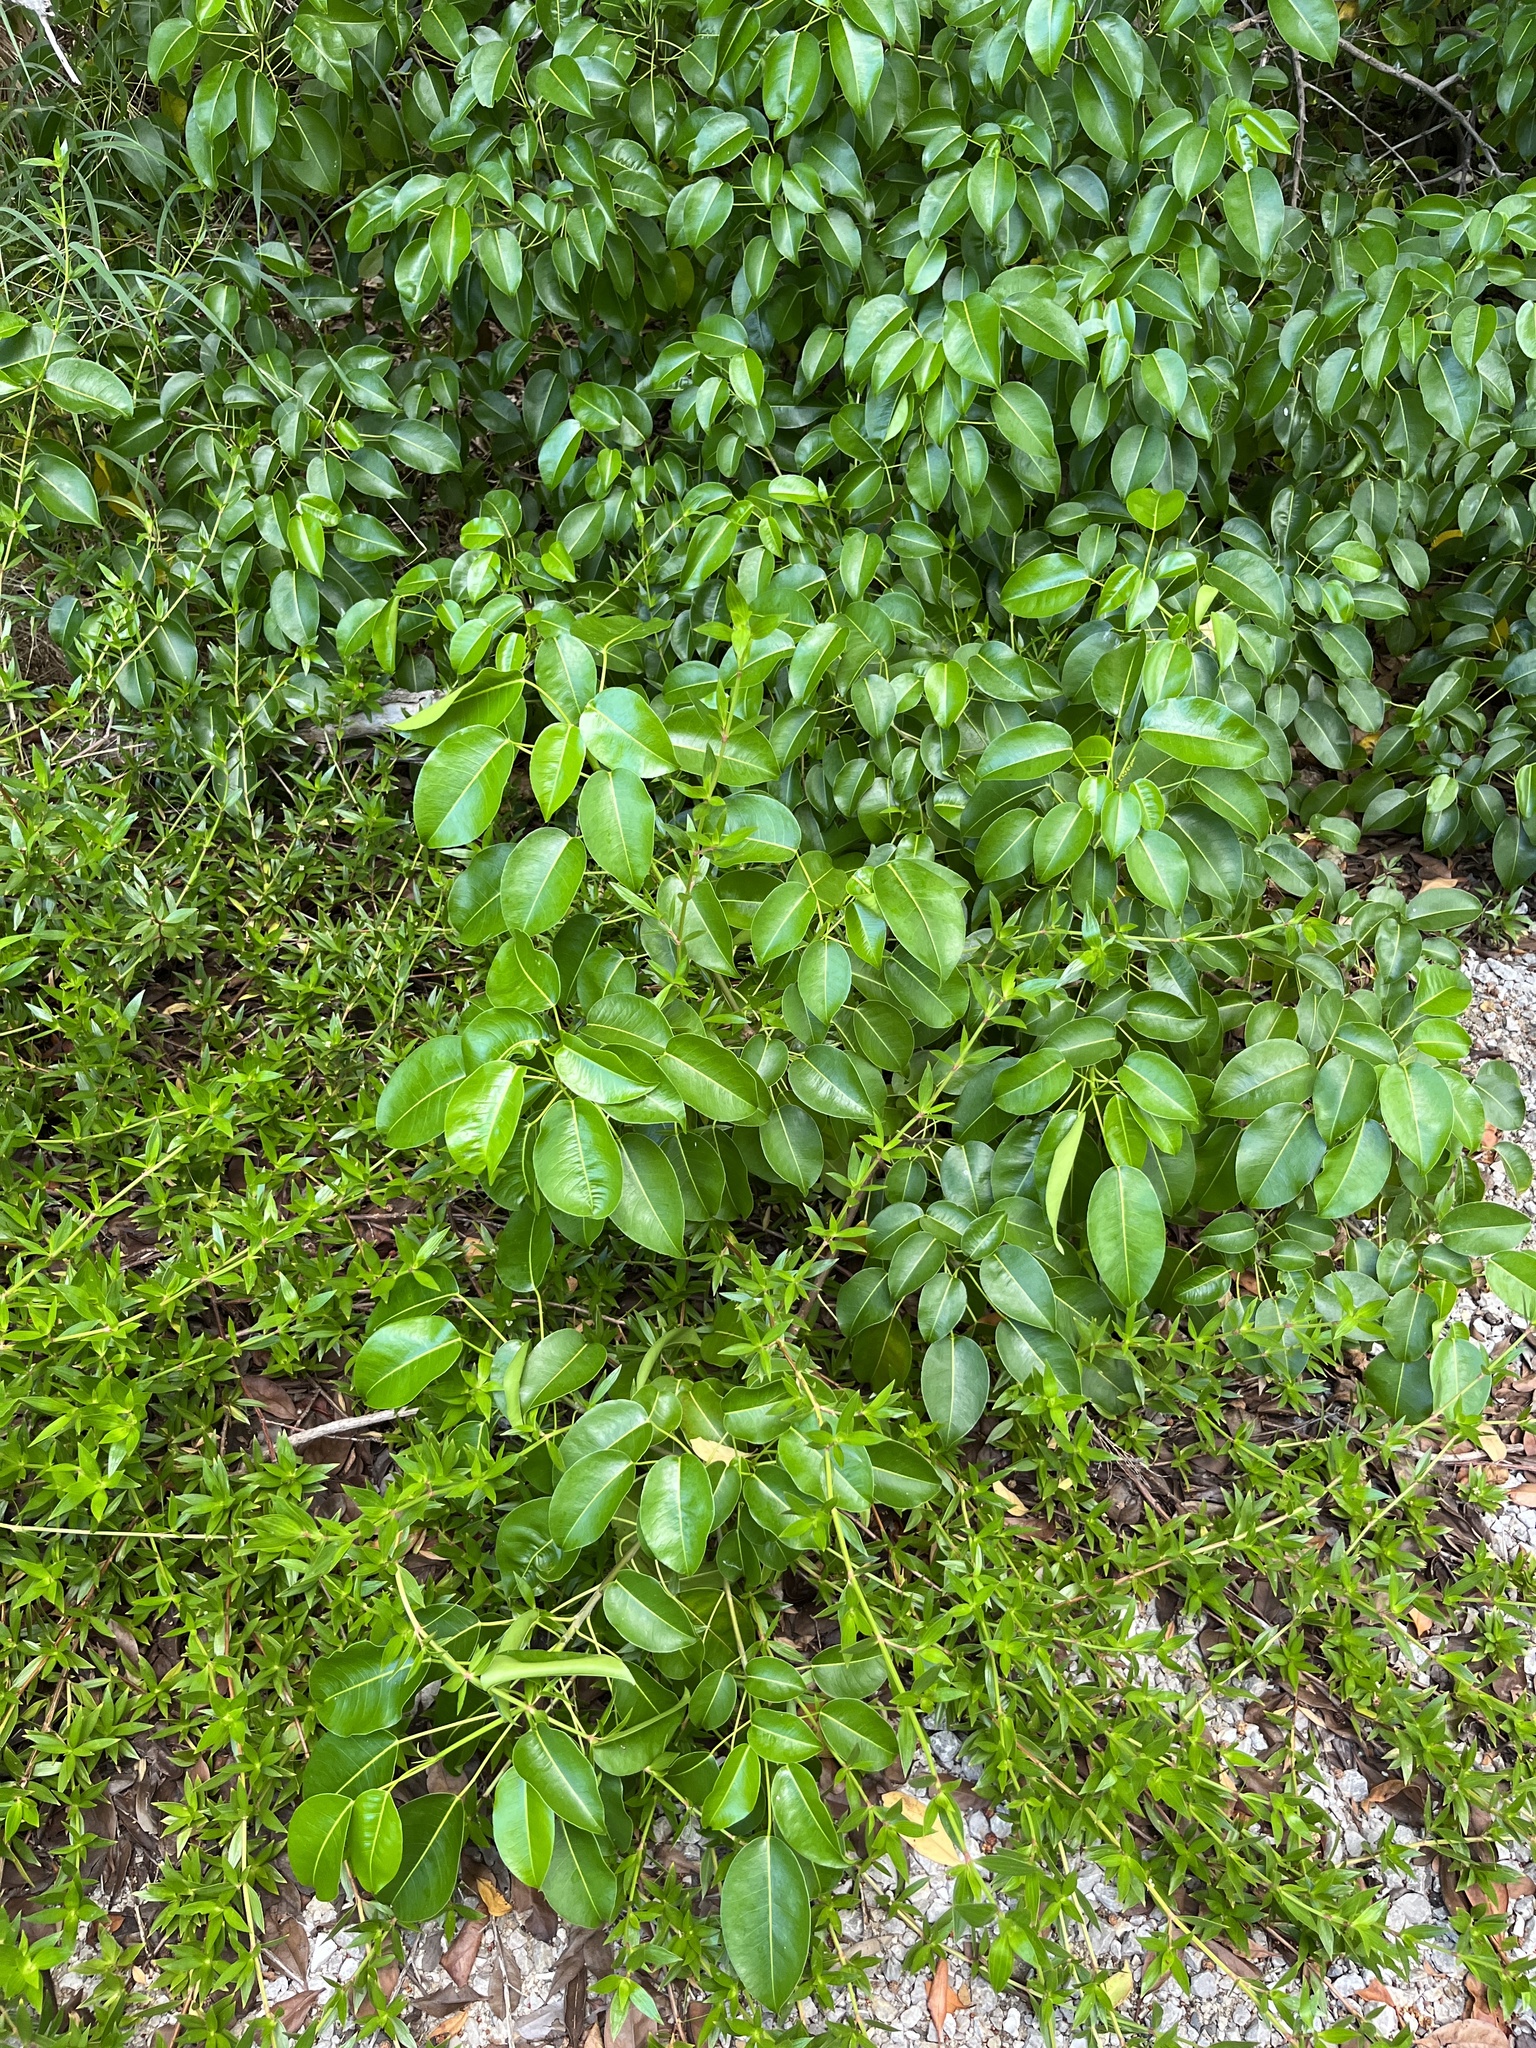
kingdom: Plantae
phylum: Tracheophyta
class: Magnoliopsida
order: Malpighiales
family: Euphorbiaceae
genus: Hippomane
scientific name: Hippomane mancinella
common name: Manchineel
